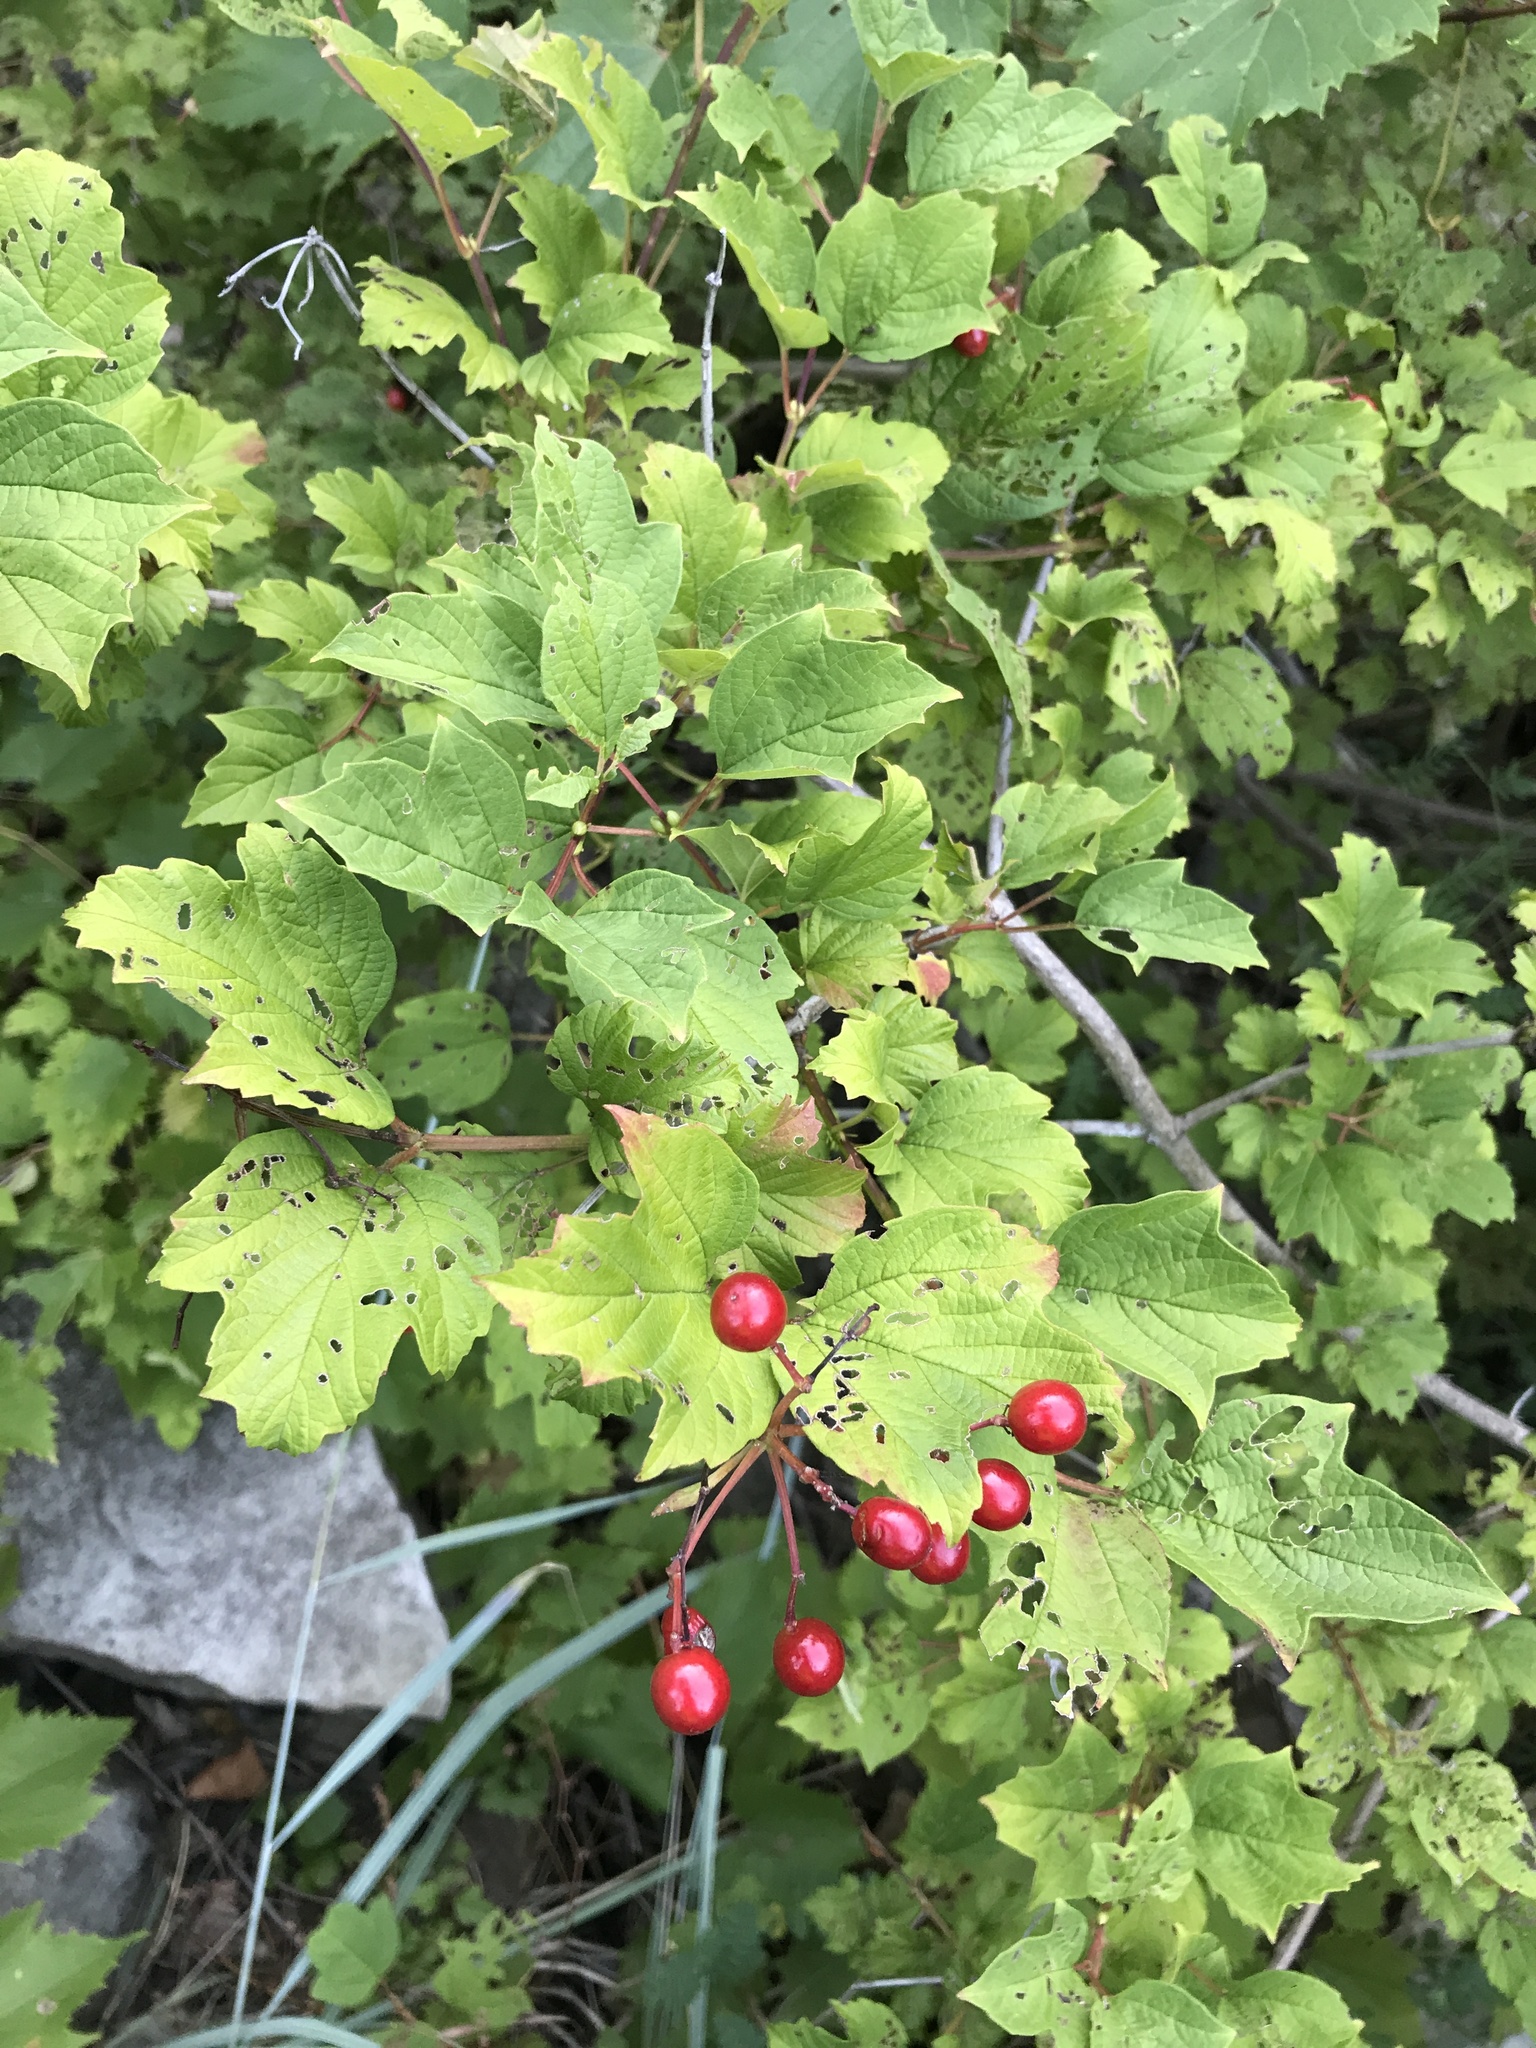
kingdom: Plantae
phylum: Tracheophyta
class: Magnoliopsida
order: Dipsacales
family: Viburnaceae
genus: Viburnum
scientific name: Viburnum opulus
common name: Guelder-rose
